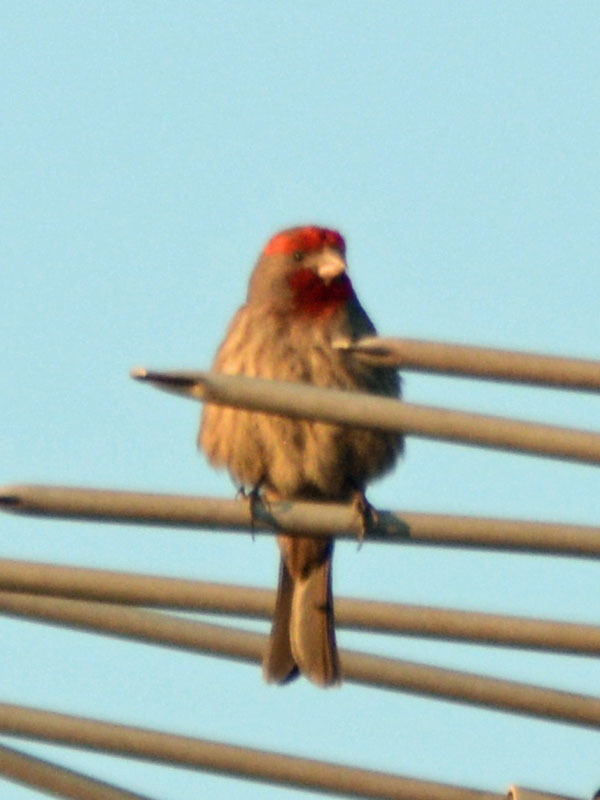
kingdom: Animalia
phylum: Chordata
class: Aves
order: Passeriformes
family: Fringillidae
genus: Haemorhous
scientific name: Haemorhous mexicanus
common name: House finch
